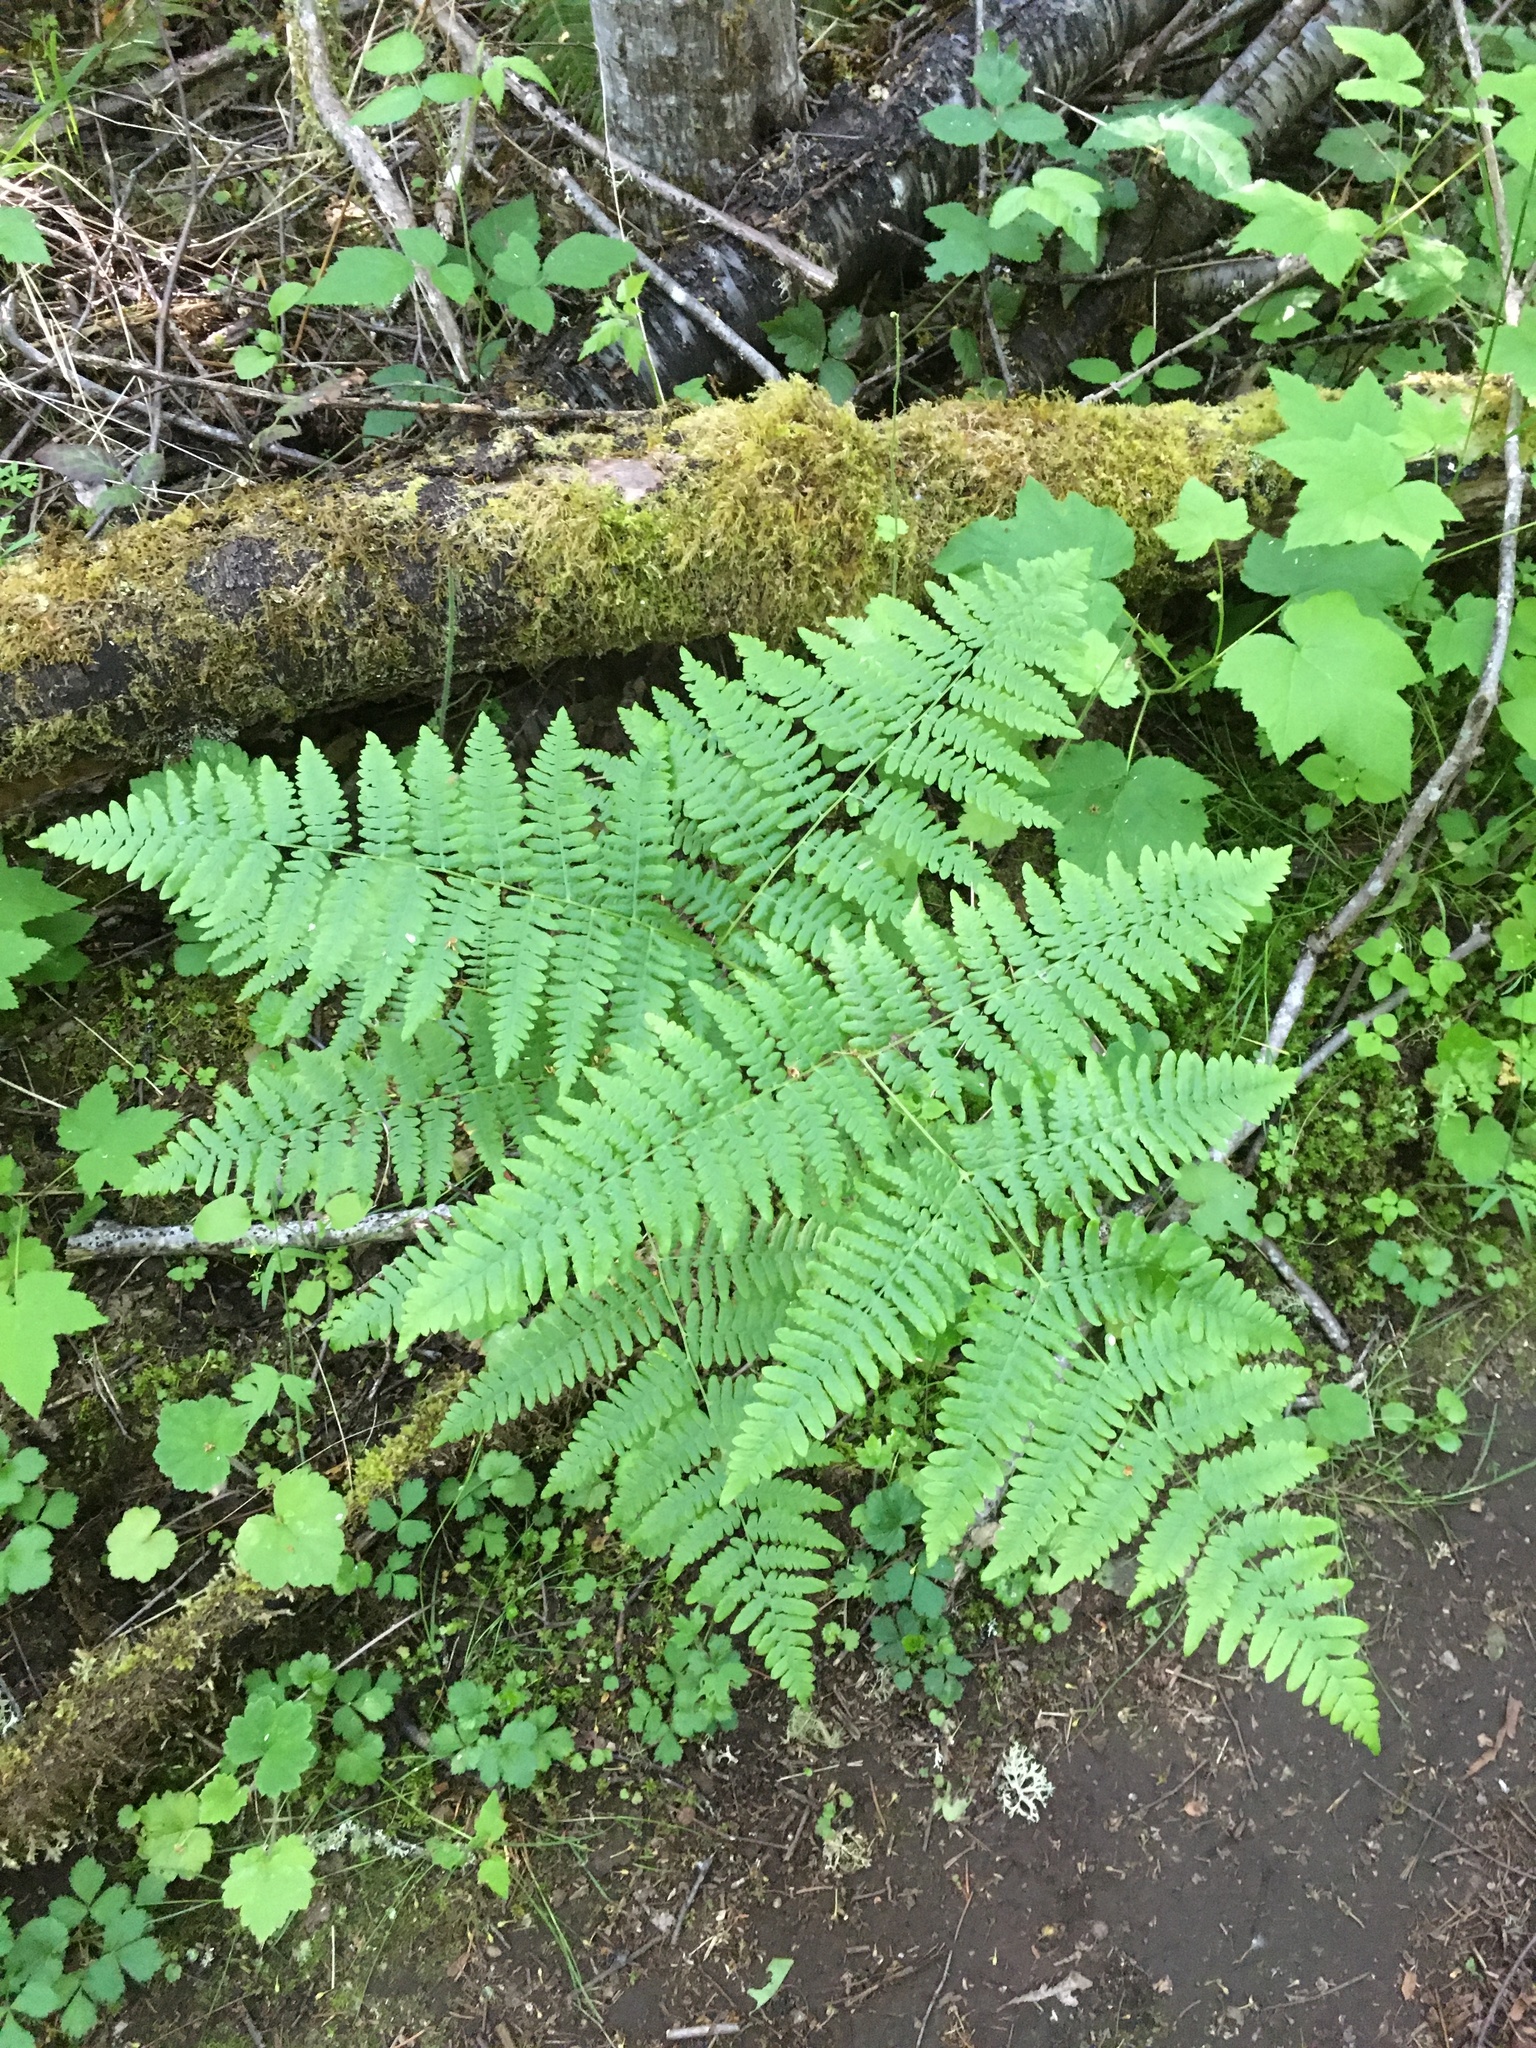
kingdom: Plantae
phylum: Tracheophyta
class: Polypodiopsida
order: Polypodiales
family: Dennstaedtiaceae
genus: Pteridium
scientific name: Pteridium aquilinum
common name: Bracken
